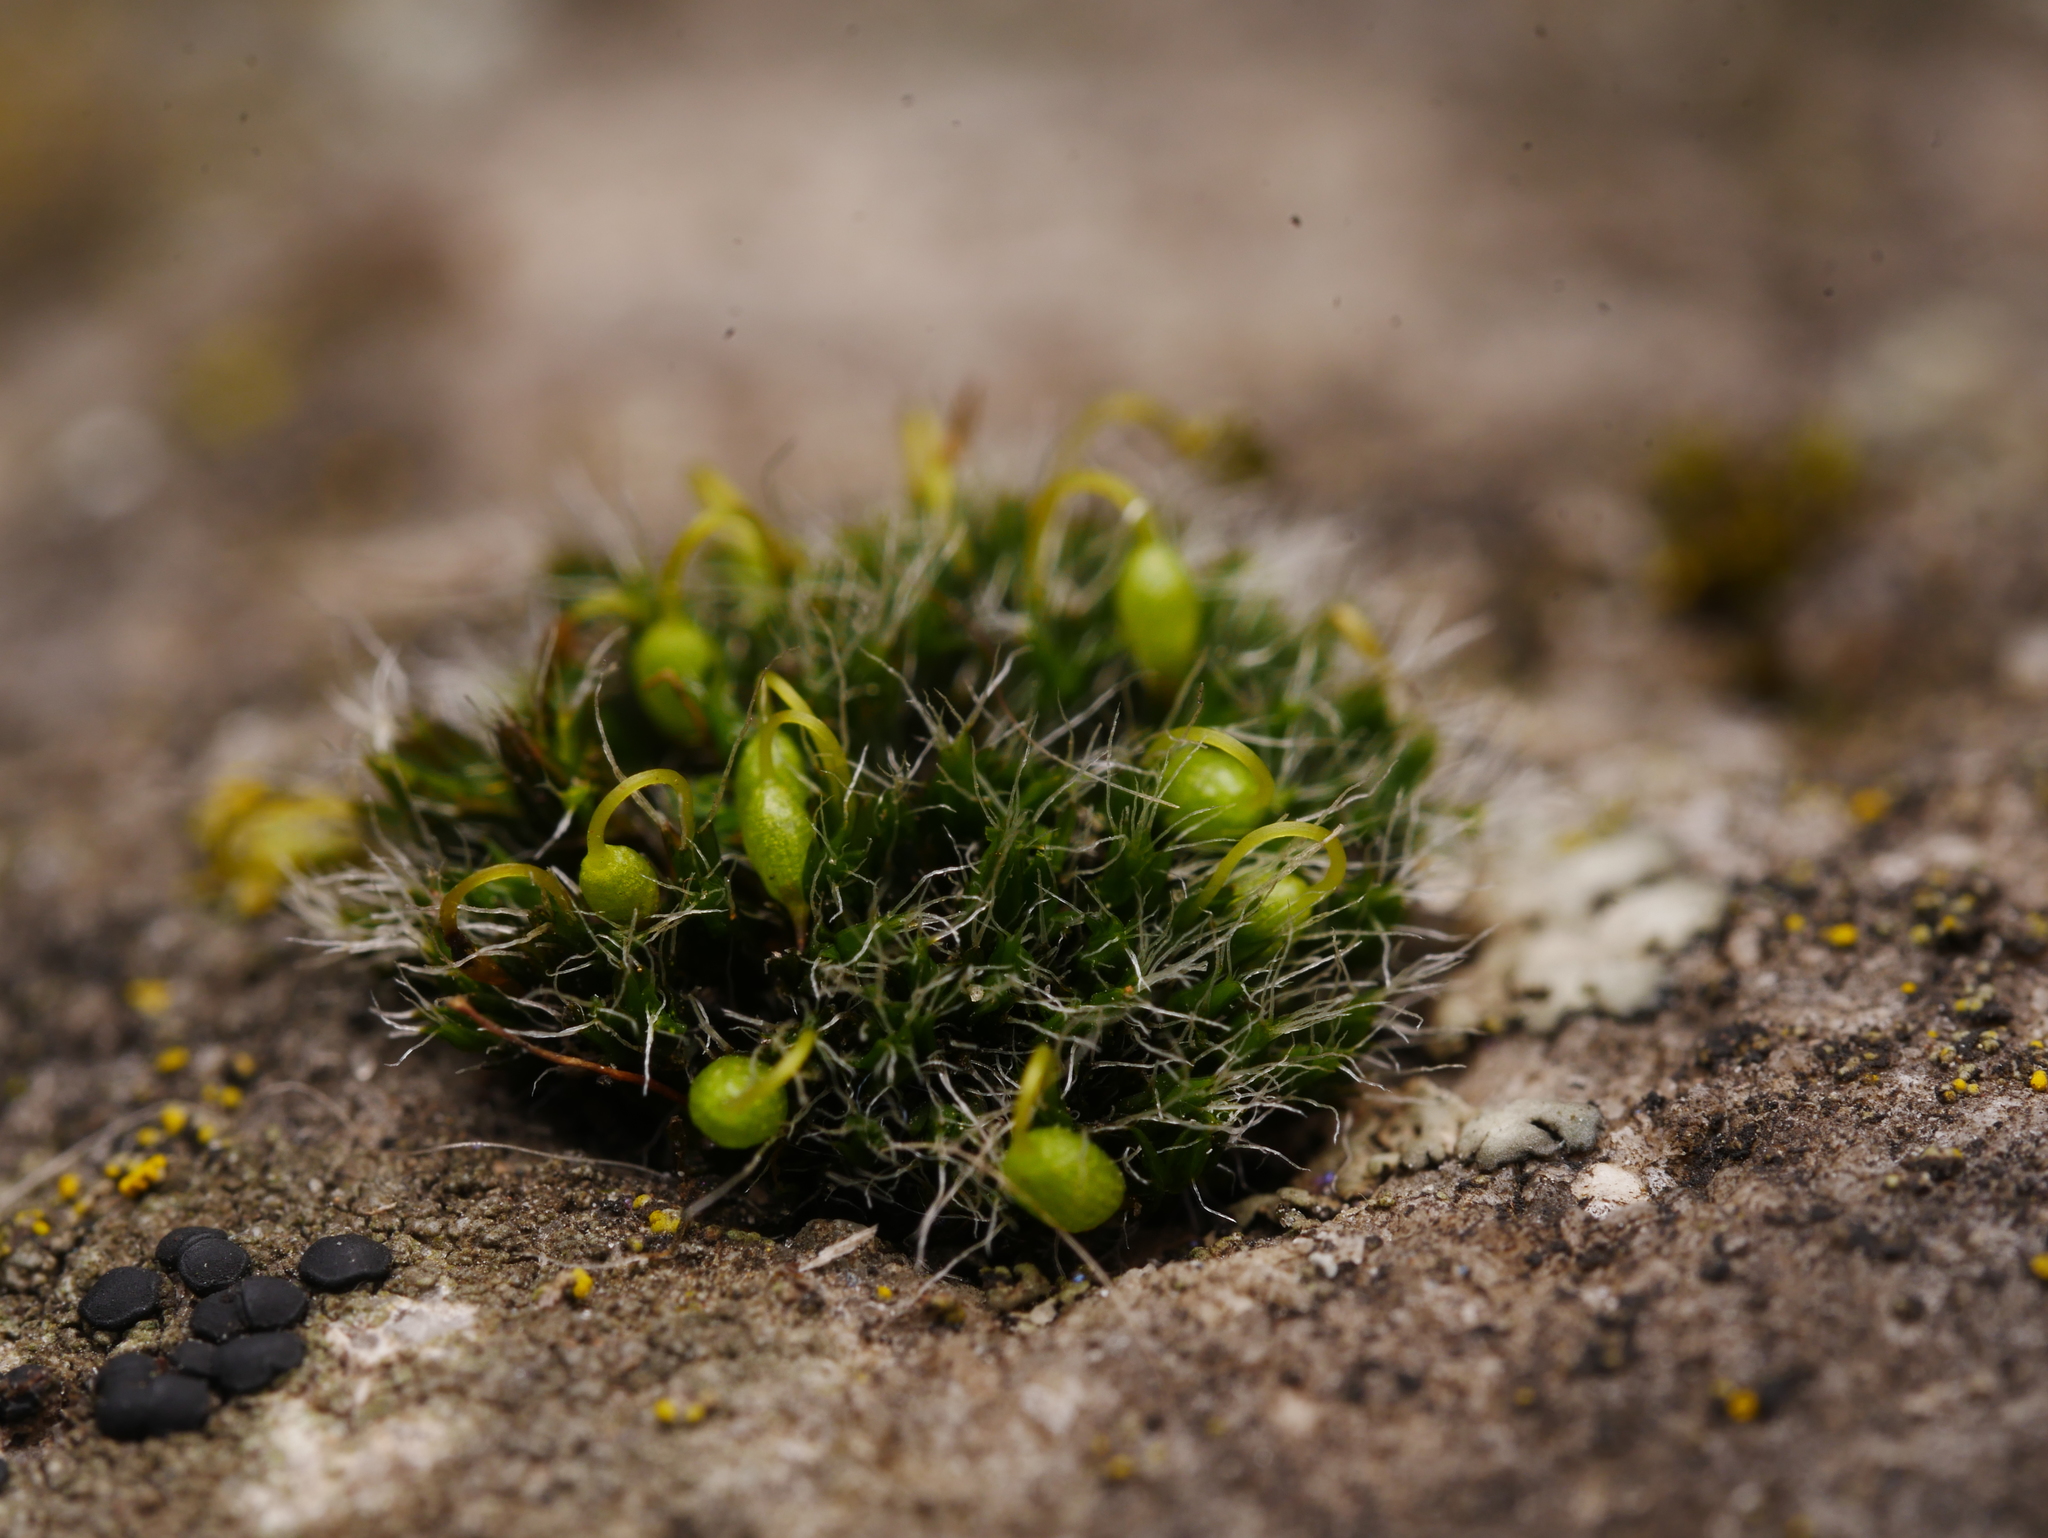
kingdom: Plantae
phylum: Bryophyta
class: Bryopsida
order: Grimmiales
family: Grimmiaceae
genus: Grimmia
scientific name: Grimmia pulvinata
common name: Grey-cushioned grimmia
